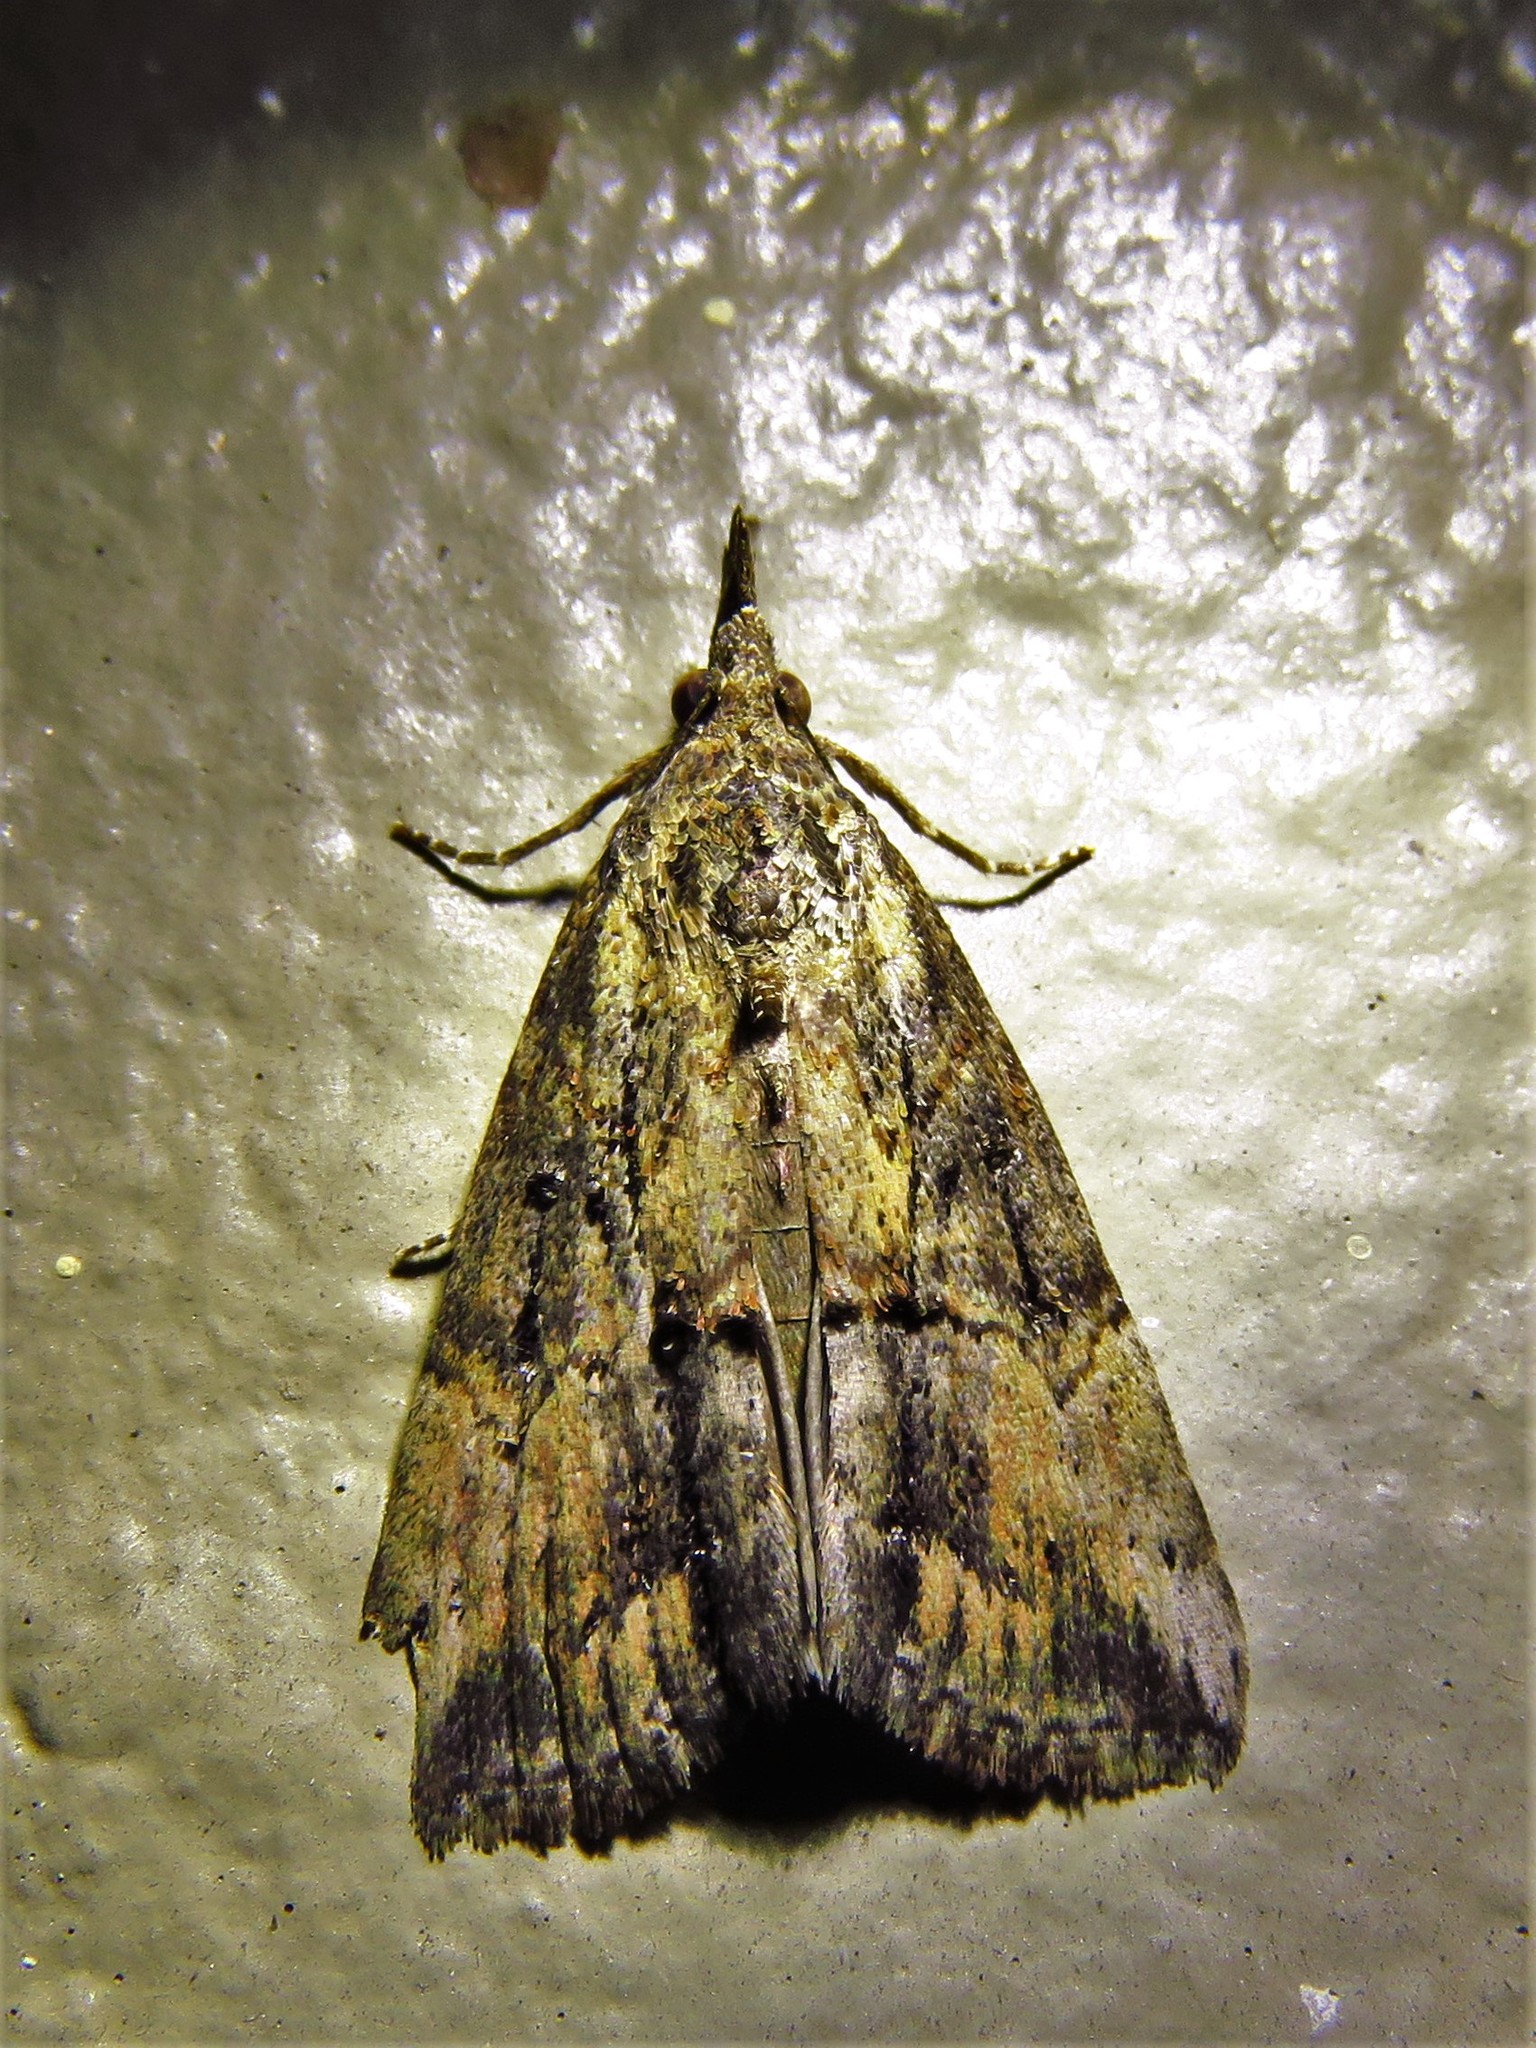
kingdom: Animalia
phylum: Arthropoda
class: Insecta
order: Lepidoptera
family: Erebidae
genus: Hypena
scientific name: Hypena scabra
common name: Green cloverworm
